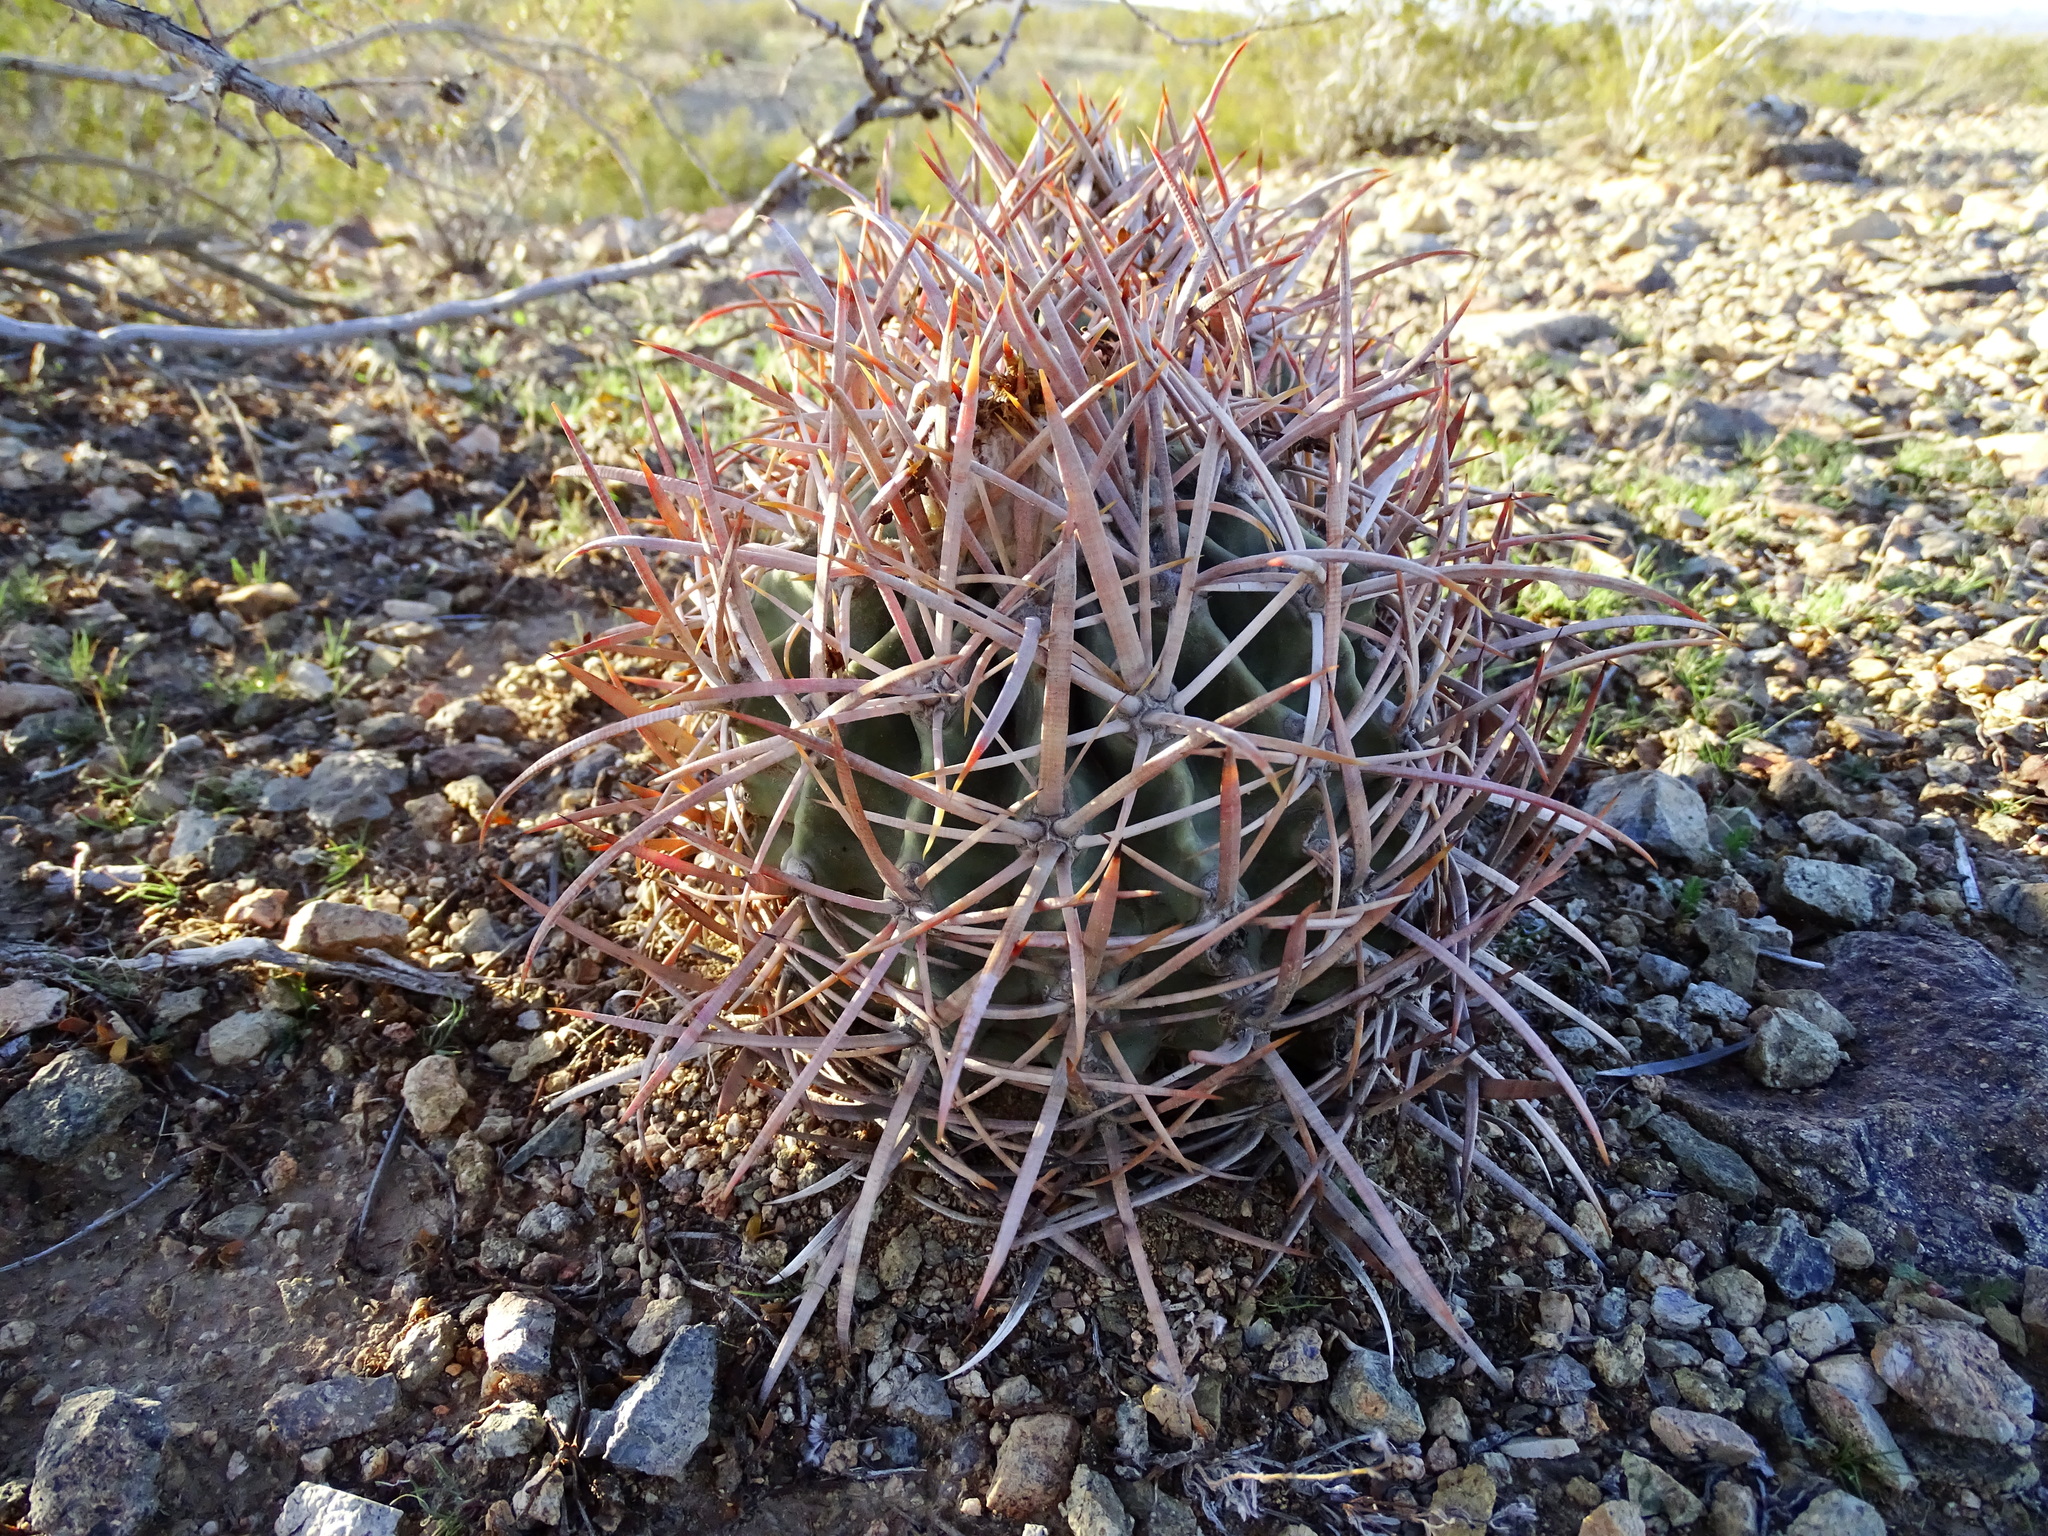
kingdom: Plantae
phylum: Tracheophyta
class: Magnoliopsida
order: Caryophyllales
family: Cactaceae
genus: Echinocactus
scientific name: Echinocactus polycephalus
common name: Cottontop cactus
